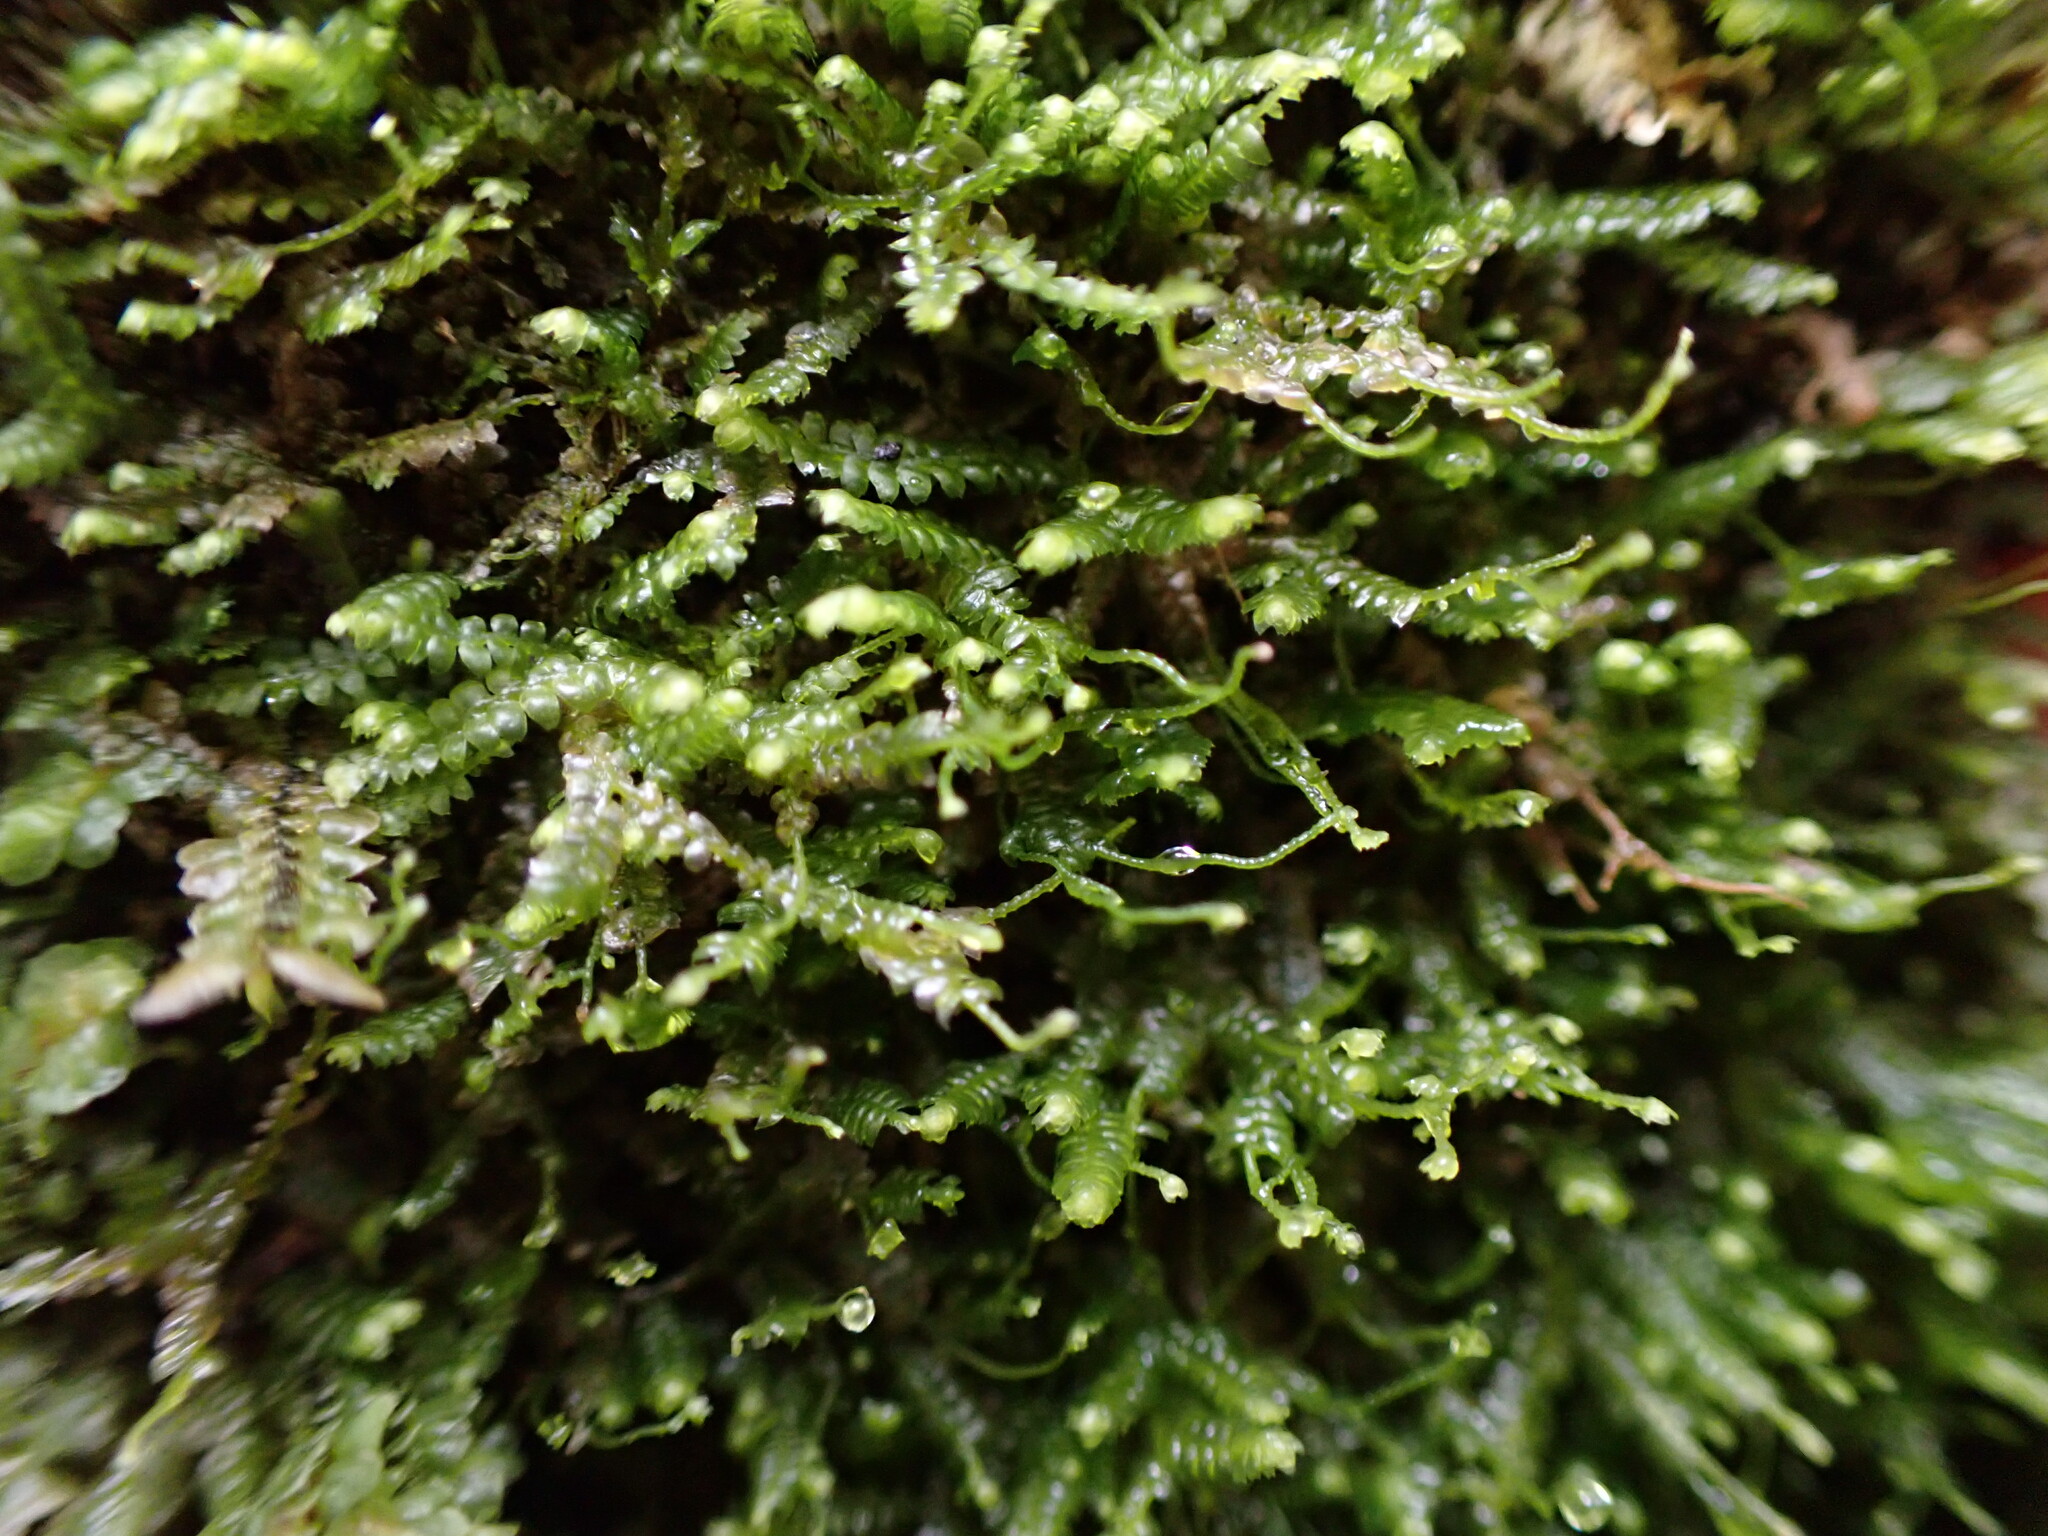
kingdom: Plantae
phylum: Marchantiophyta
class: Jungermanniopsida
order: Jungermanniales
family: Lepidoziaceae
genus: Bazzania
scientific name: Bazzania denudata
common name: Naked whipwort
